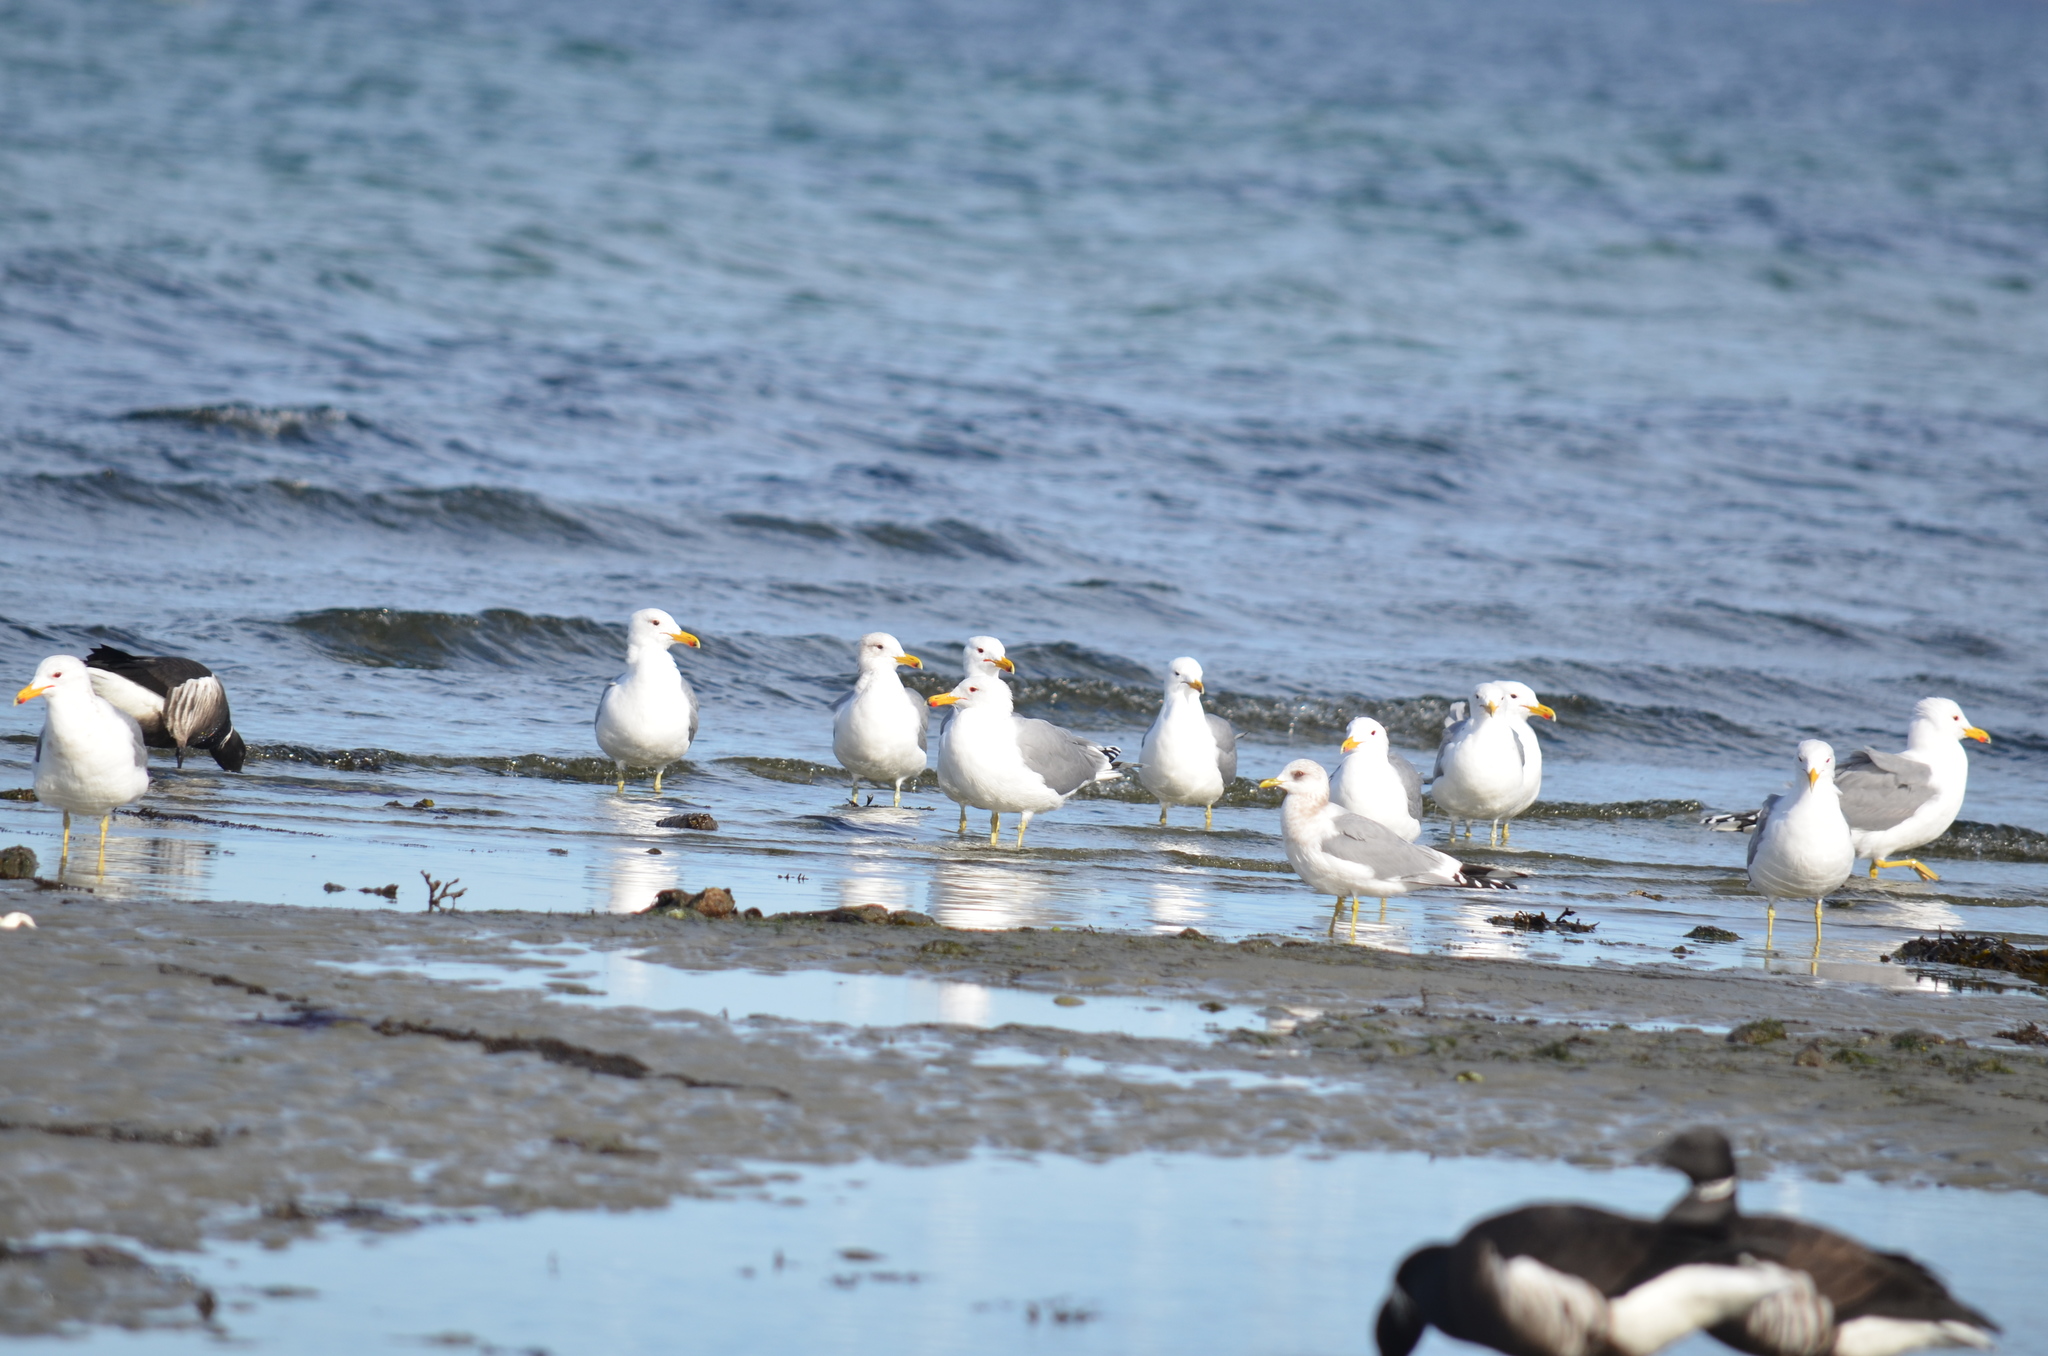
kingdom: Animalia
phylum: Chordata
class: Aves
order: Charadriiformes
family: Laridae
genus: Larus
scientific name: Larus californicus
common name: California gull
